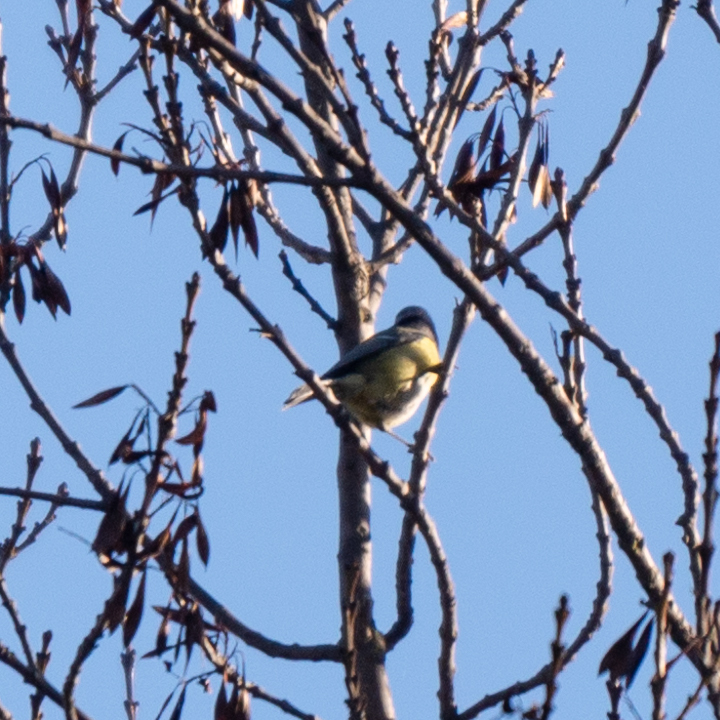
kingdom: Animalia
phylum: Chordata
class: Aves
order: Passeriformes
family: Paridae
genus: Cyanistes
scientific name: Cyanistes caeruleus
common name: Eurasian blue tit
